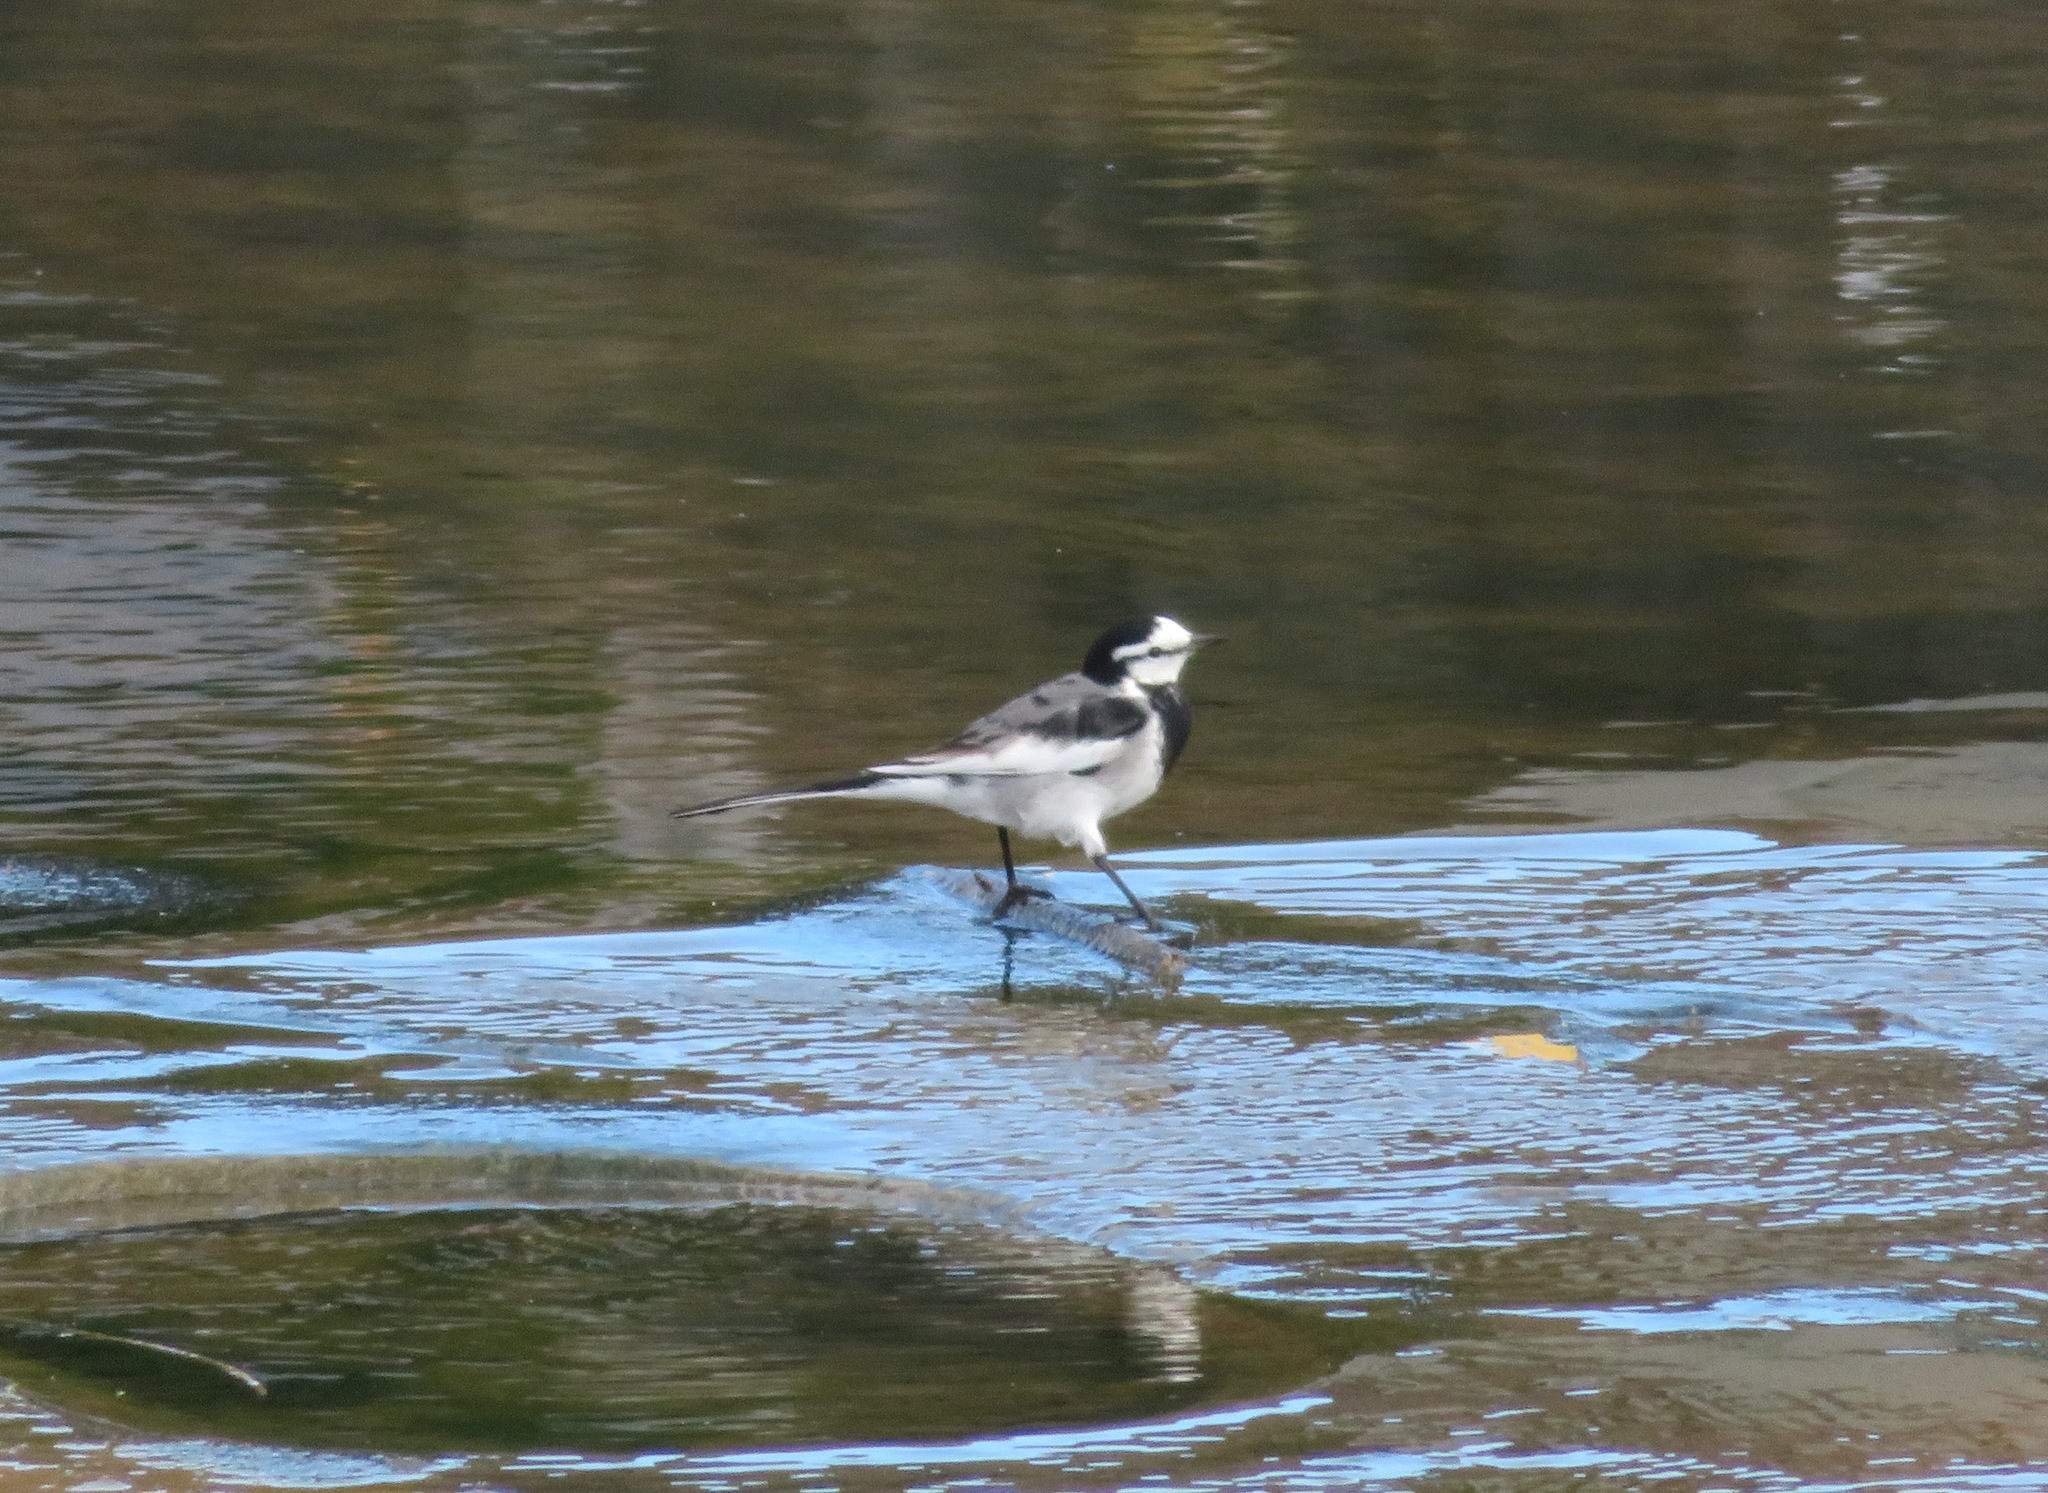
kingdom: Animalia
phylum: Chordata
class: Aves
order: Passeriformes
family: Motacillidae
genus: Motacilla
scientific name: Motacilla alba
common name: White wagtail
